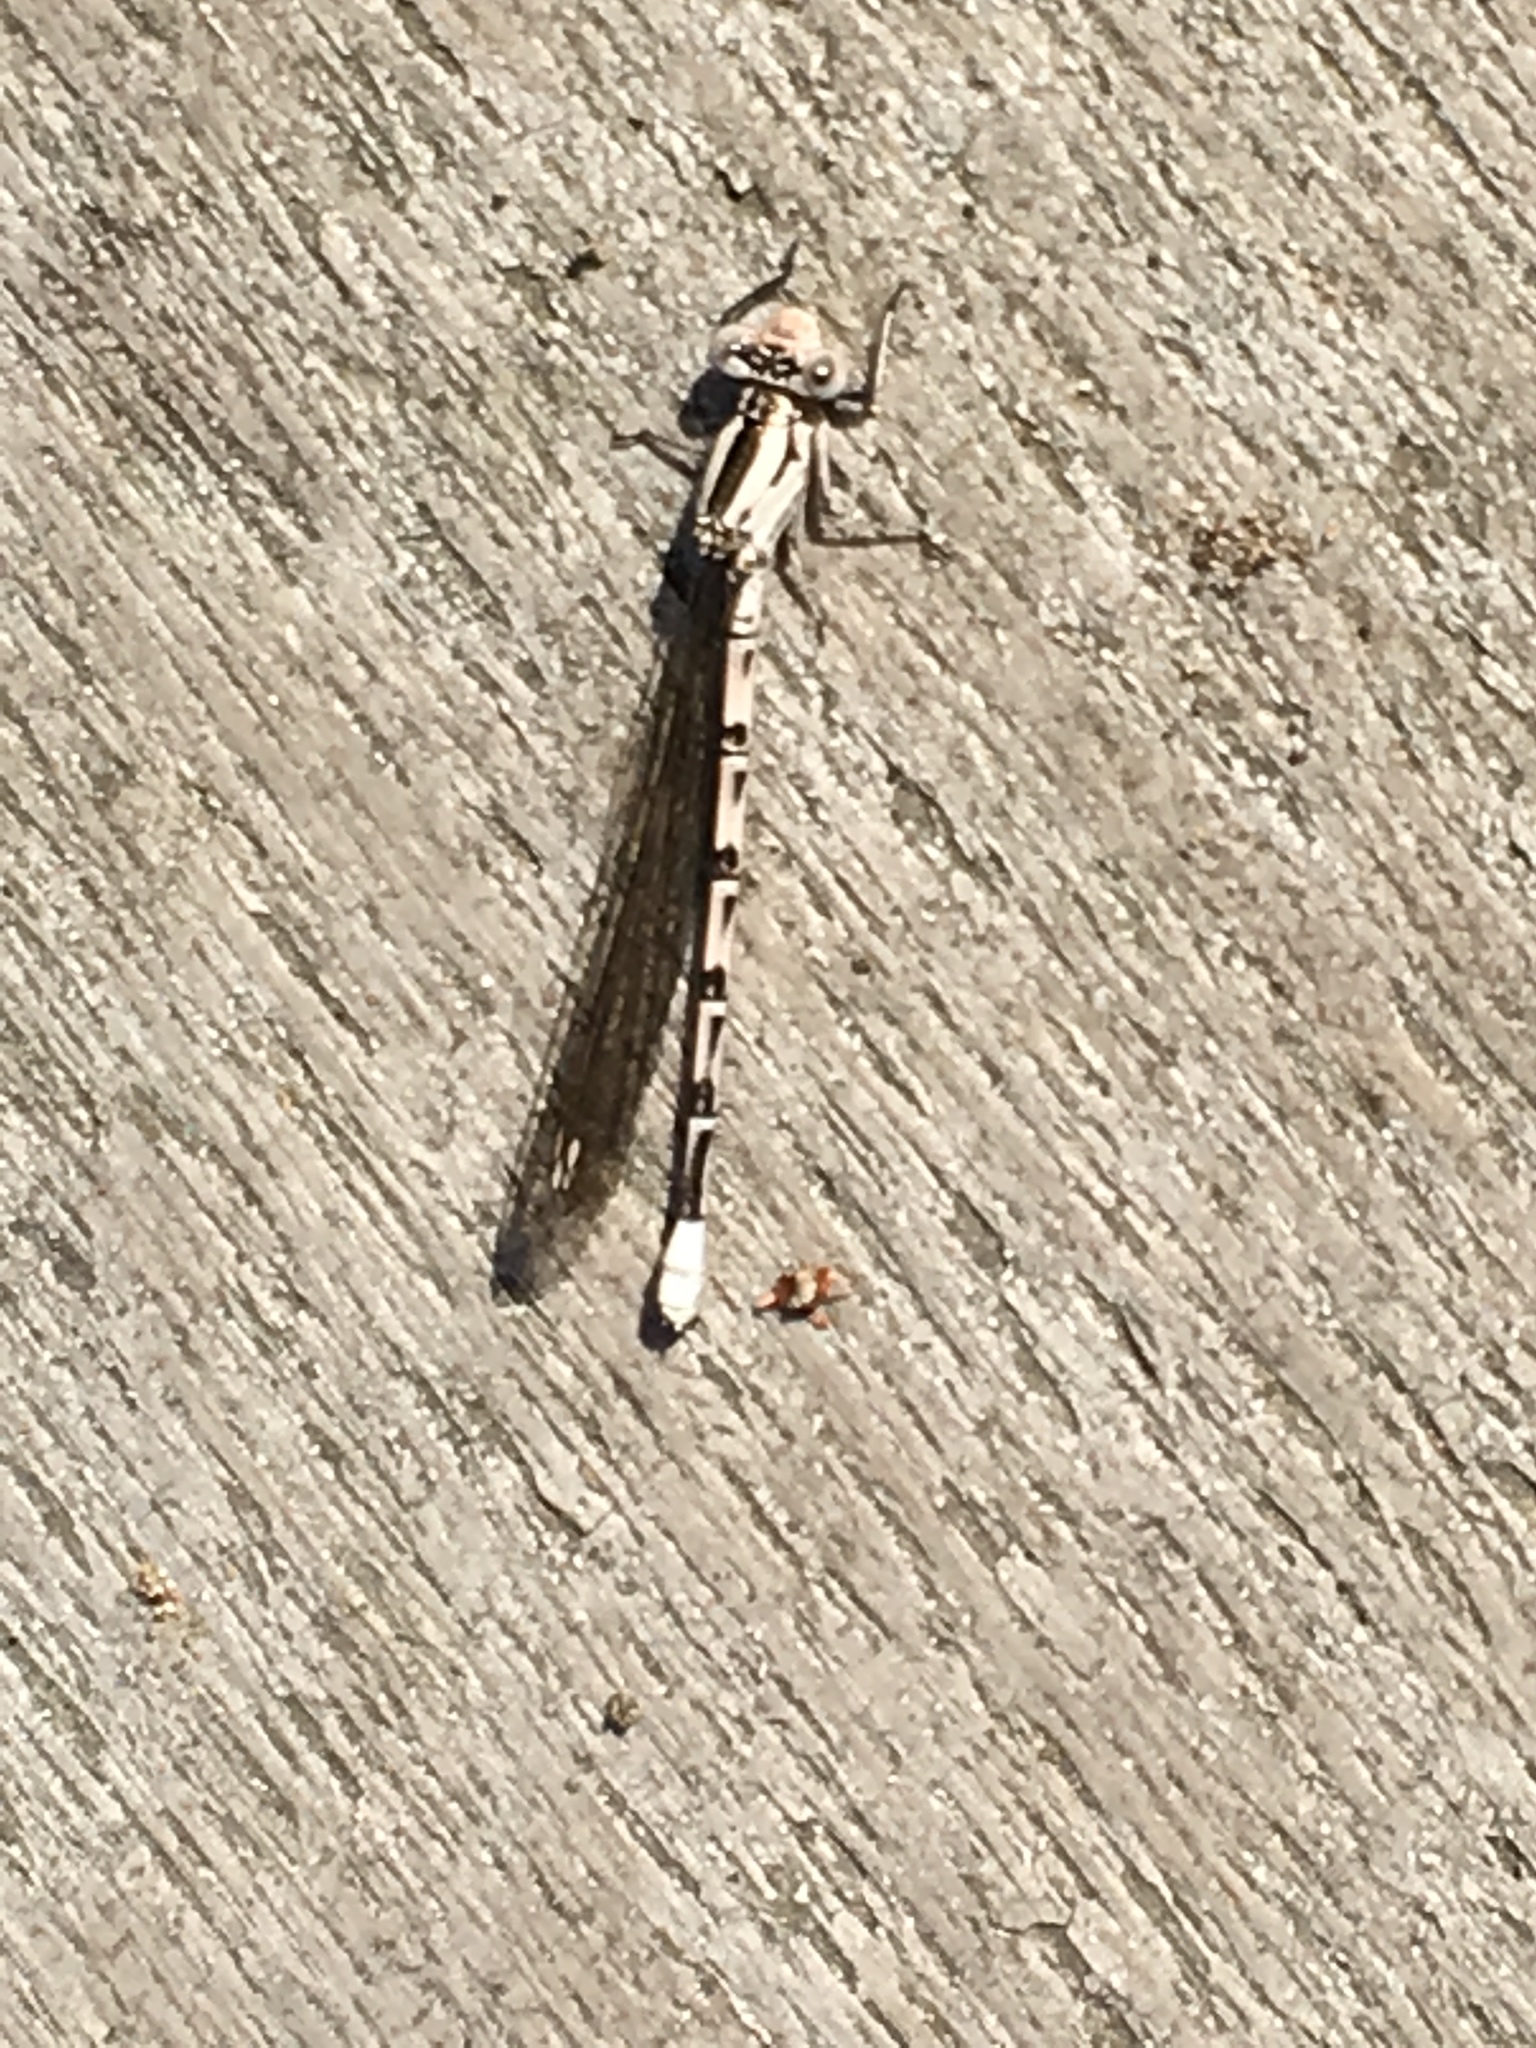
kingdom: Animalia
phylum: Arthropoda
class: Insecta
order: Odonata
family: Coenagrionidae
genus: Argia
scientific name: Argia vivida
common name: Vivid dancer
